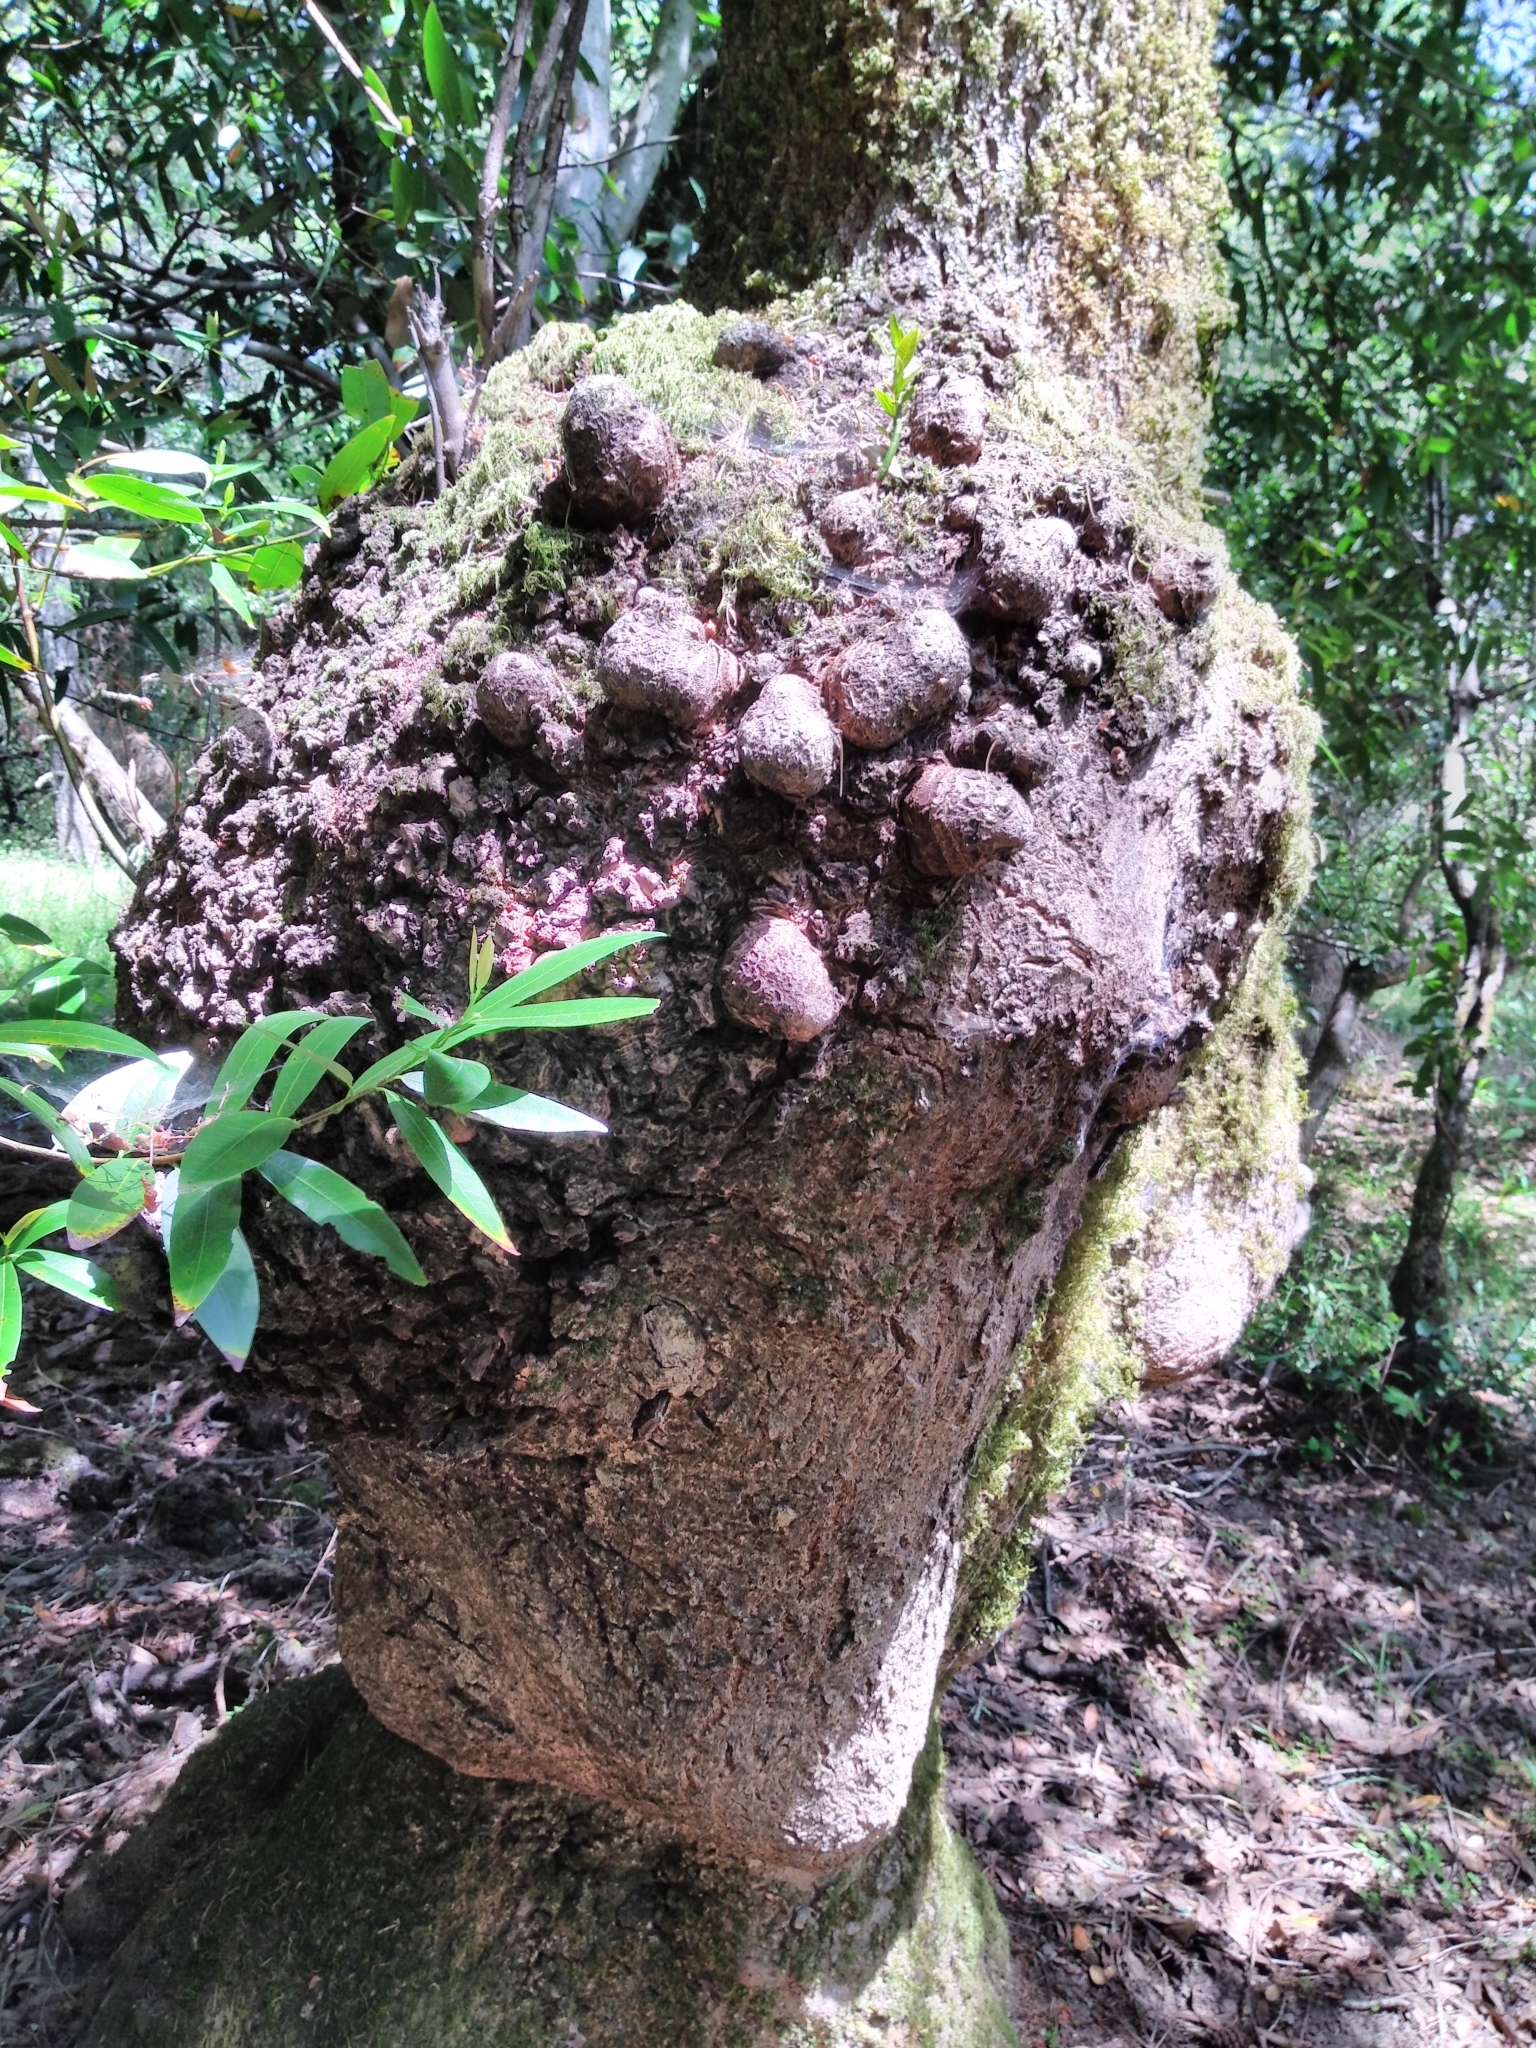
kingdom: Plantae
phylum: Tracheophyta
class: Magnoliopsida
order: Laurales
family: Lauraceae
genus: Umbellularia
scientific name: Umbellularia californica
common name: California bay
